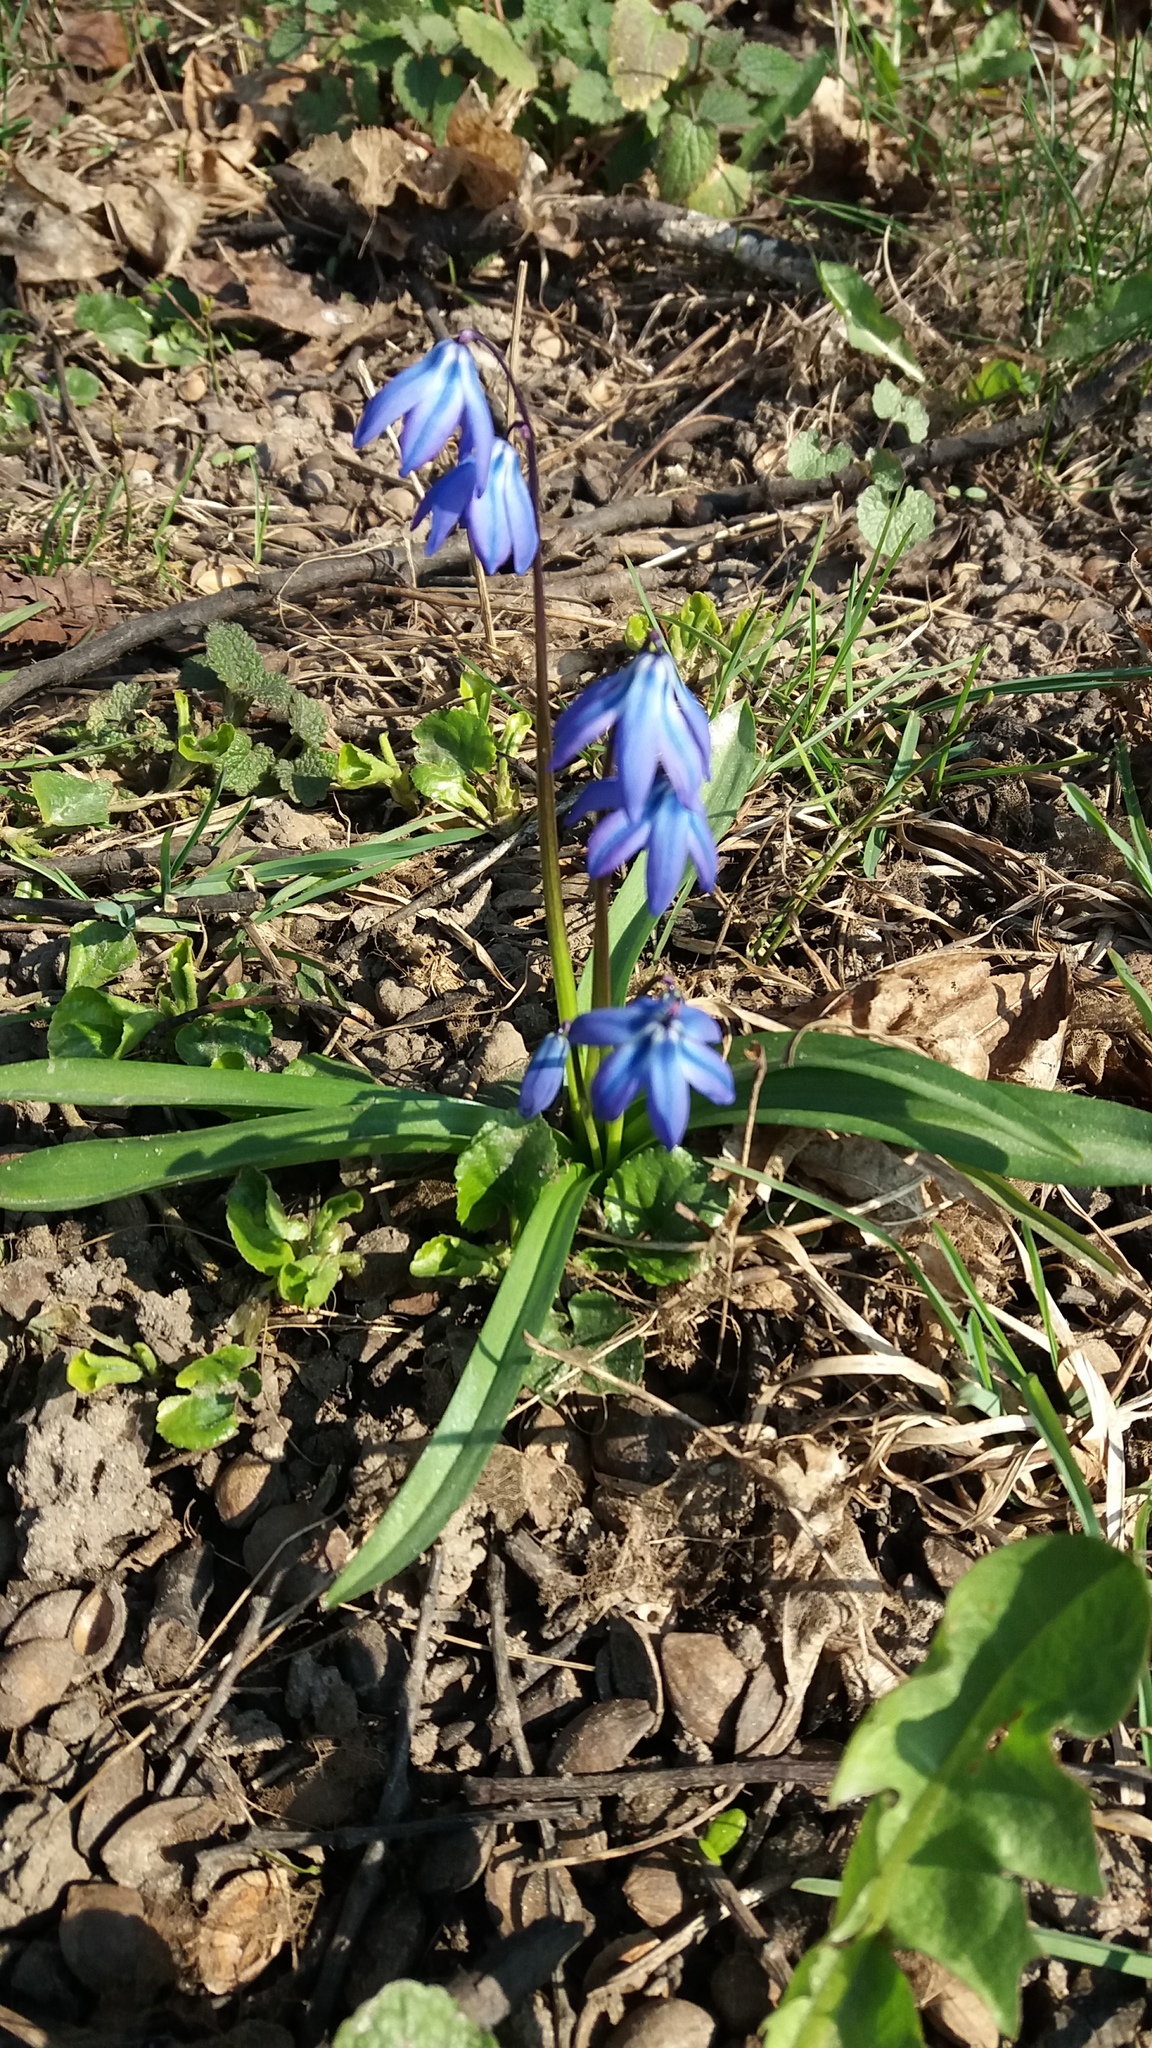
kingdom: Plantae
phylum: Tracheophyta
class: Liliopsida
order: Asparagales
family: Asparagaceae
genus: Scilla
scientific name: Scilla siberica
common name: Siberian squill
